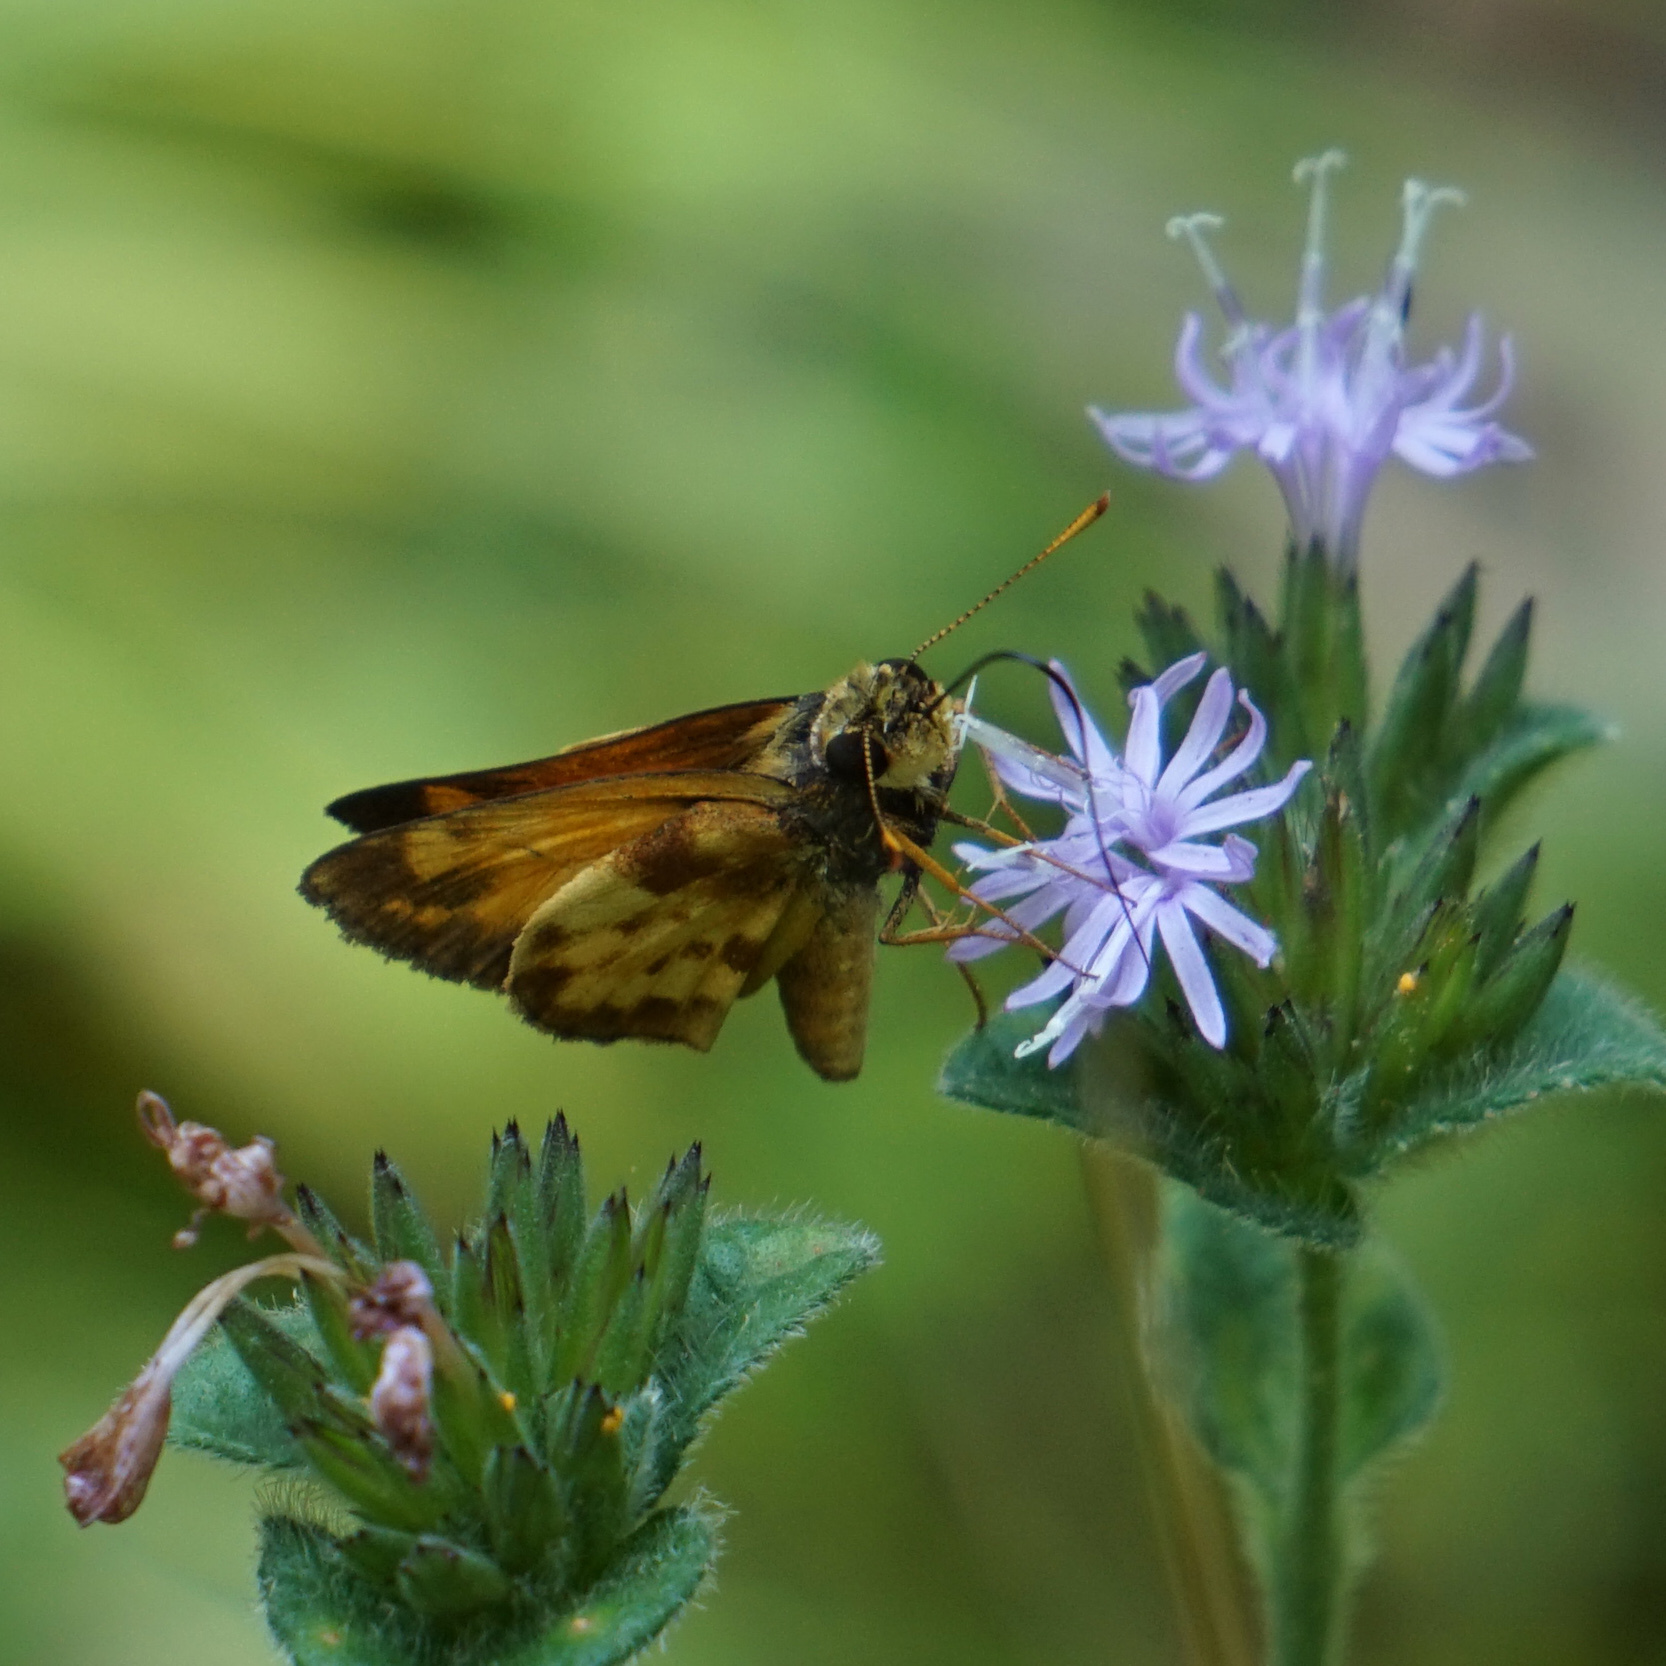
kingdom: Animalia
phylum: Arthropoda
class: Insecta
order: Lepidoptera
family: Hesperiidae
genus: Lon
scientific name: Lon zabulon
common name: Zabulon skipper
